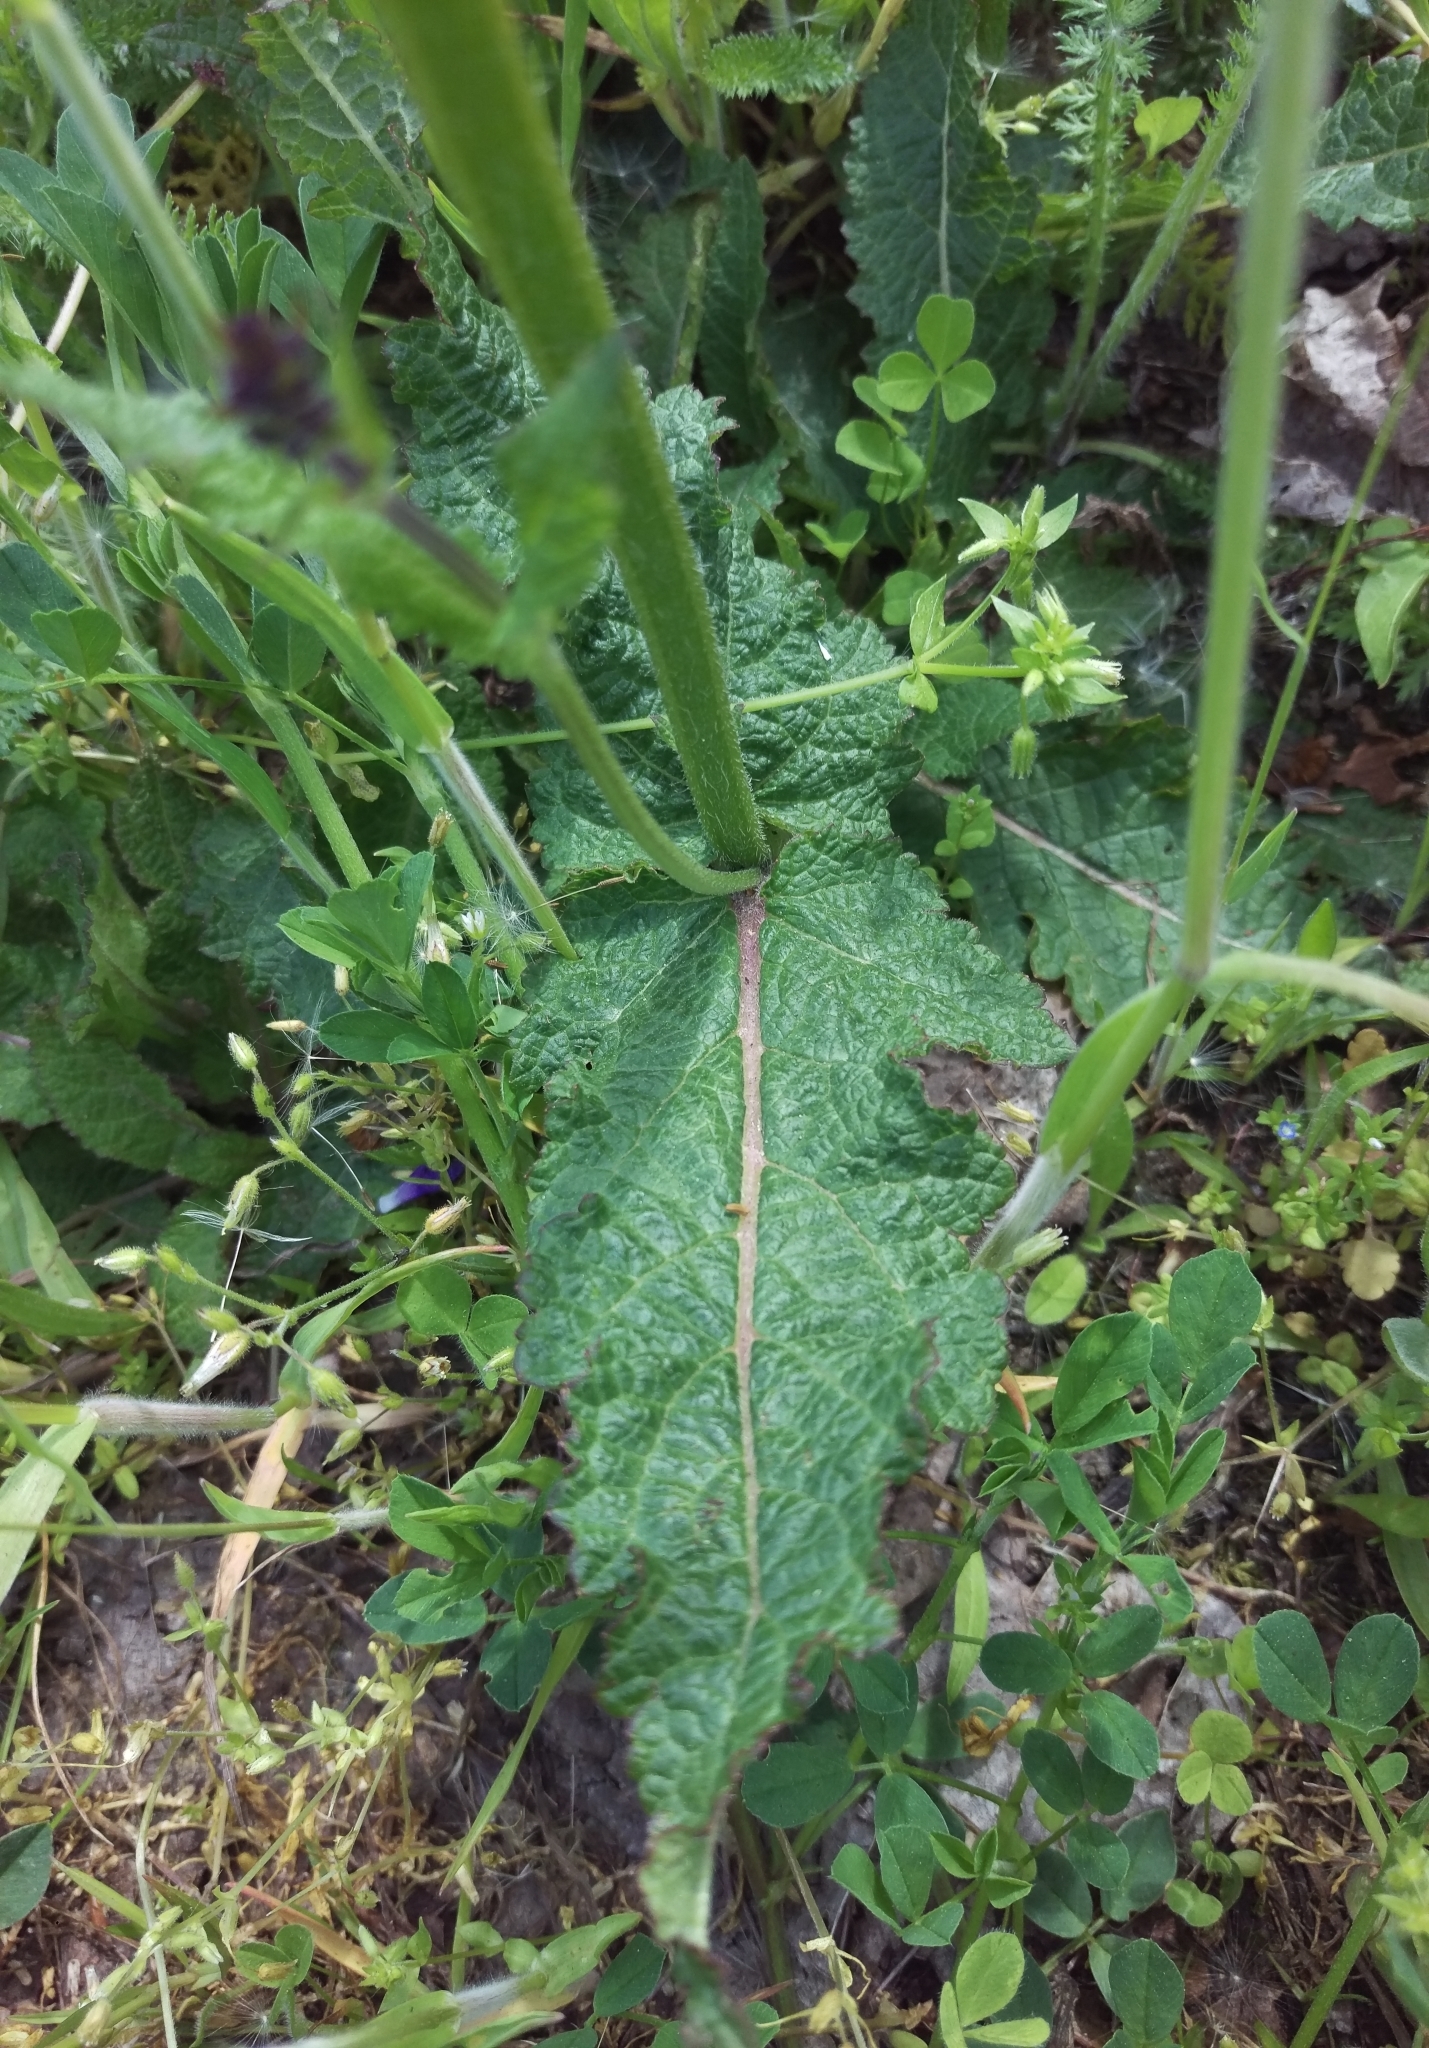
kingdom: Plantae
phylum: Tracheophyta
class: Magnoliopsida
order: Lamiales
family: Lamiaceae
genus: Salvia
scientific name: Salvia pratensis
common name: Meadow sage
